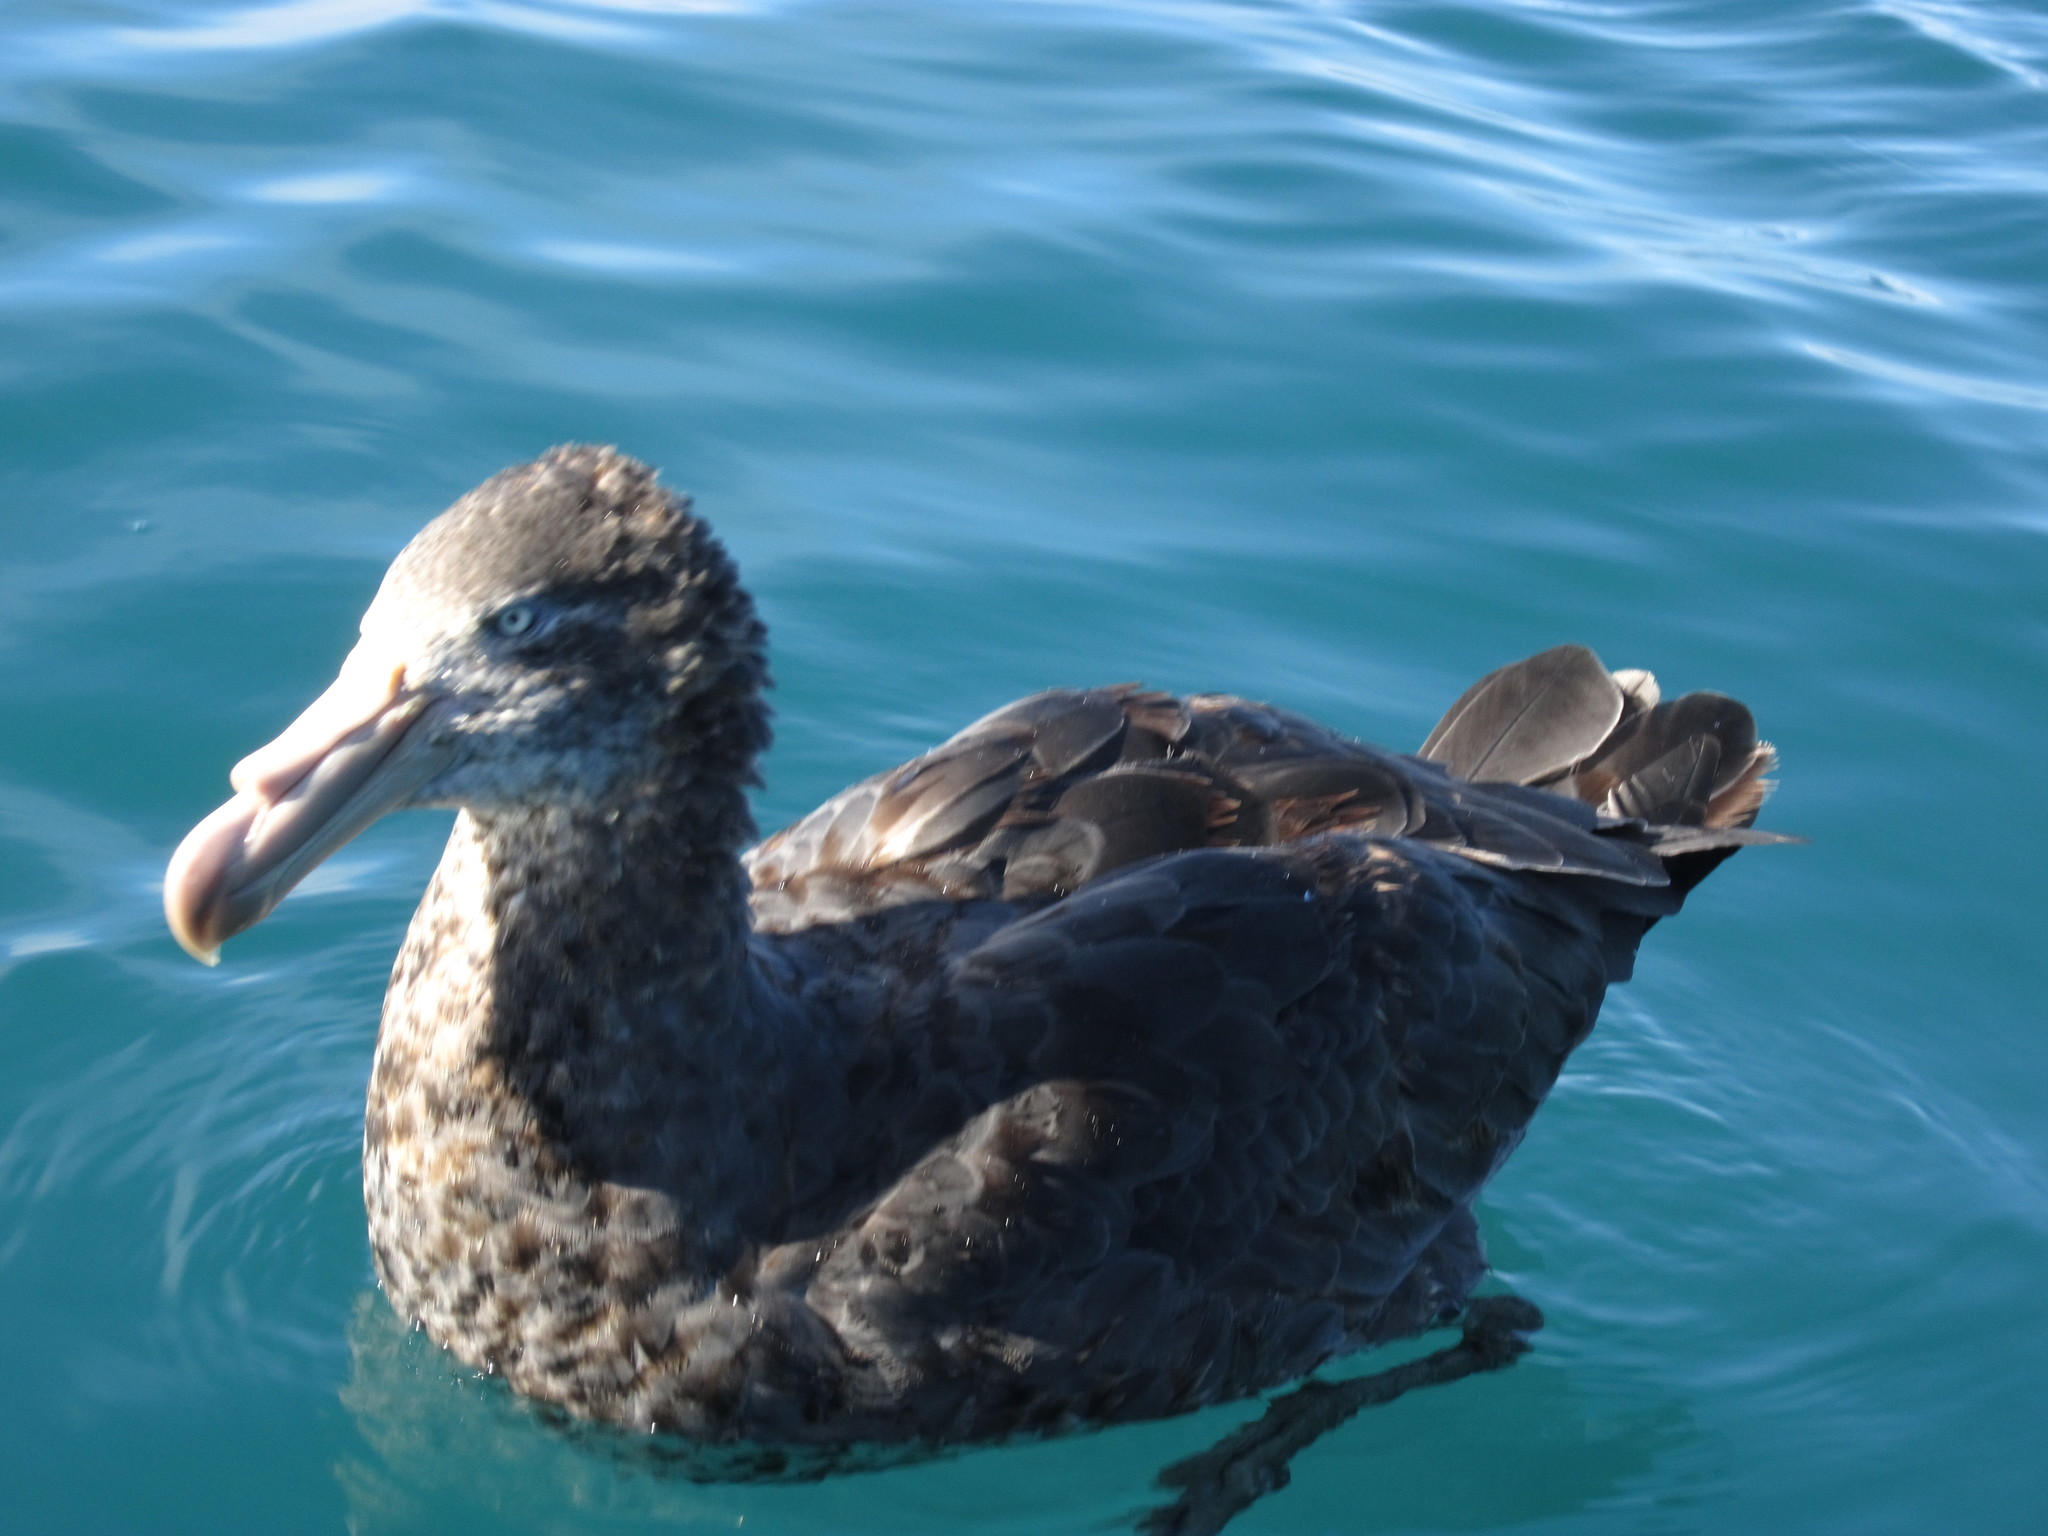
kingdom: Animalia
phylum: Chordata
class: Aves
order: Procellariiformes
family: Procellariidae
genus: Macronectes
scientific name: Macronectes halli
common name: Northern giant petrel
